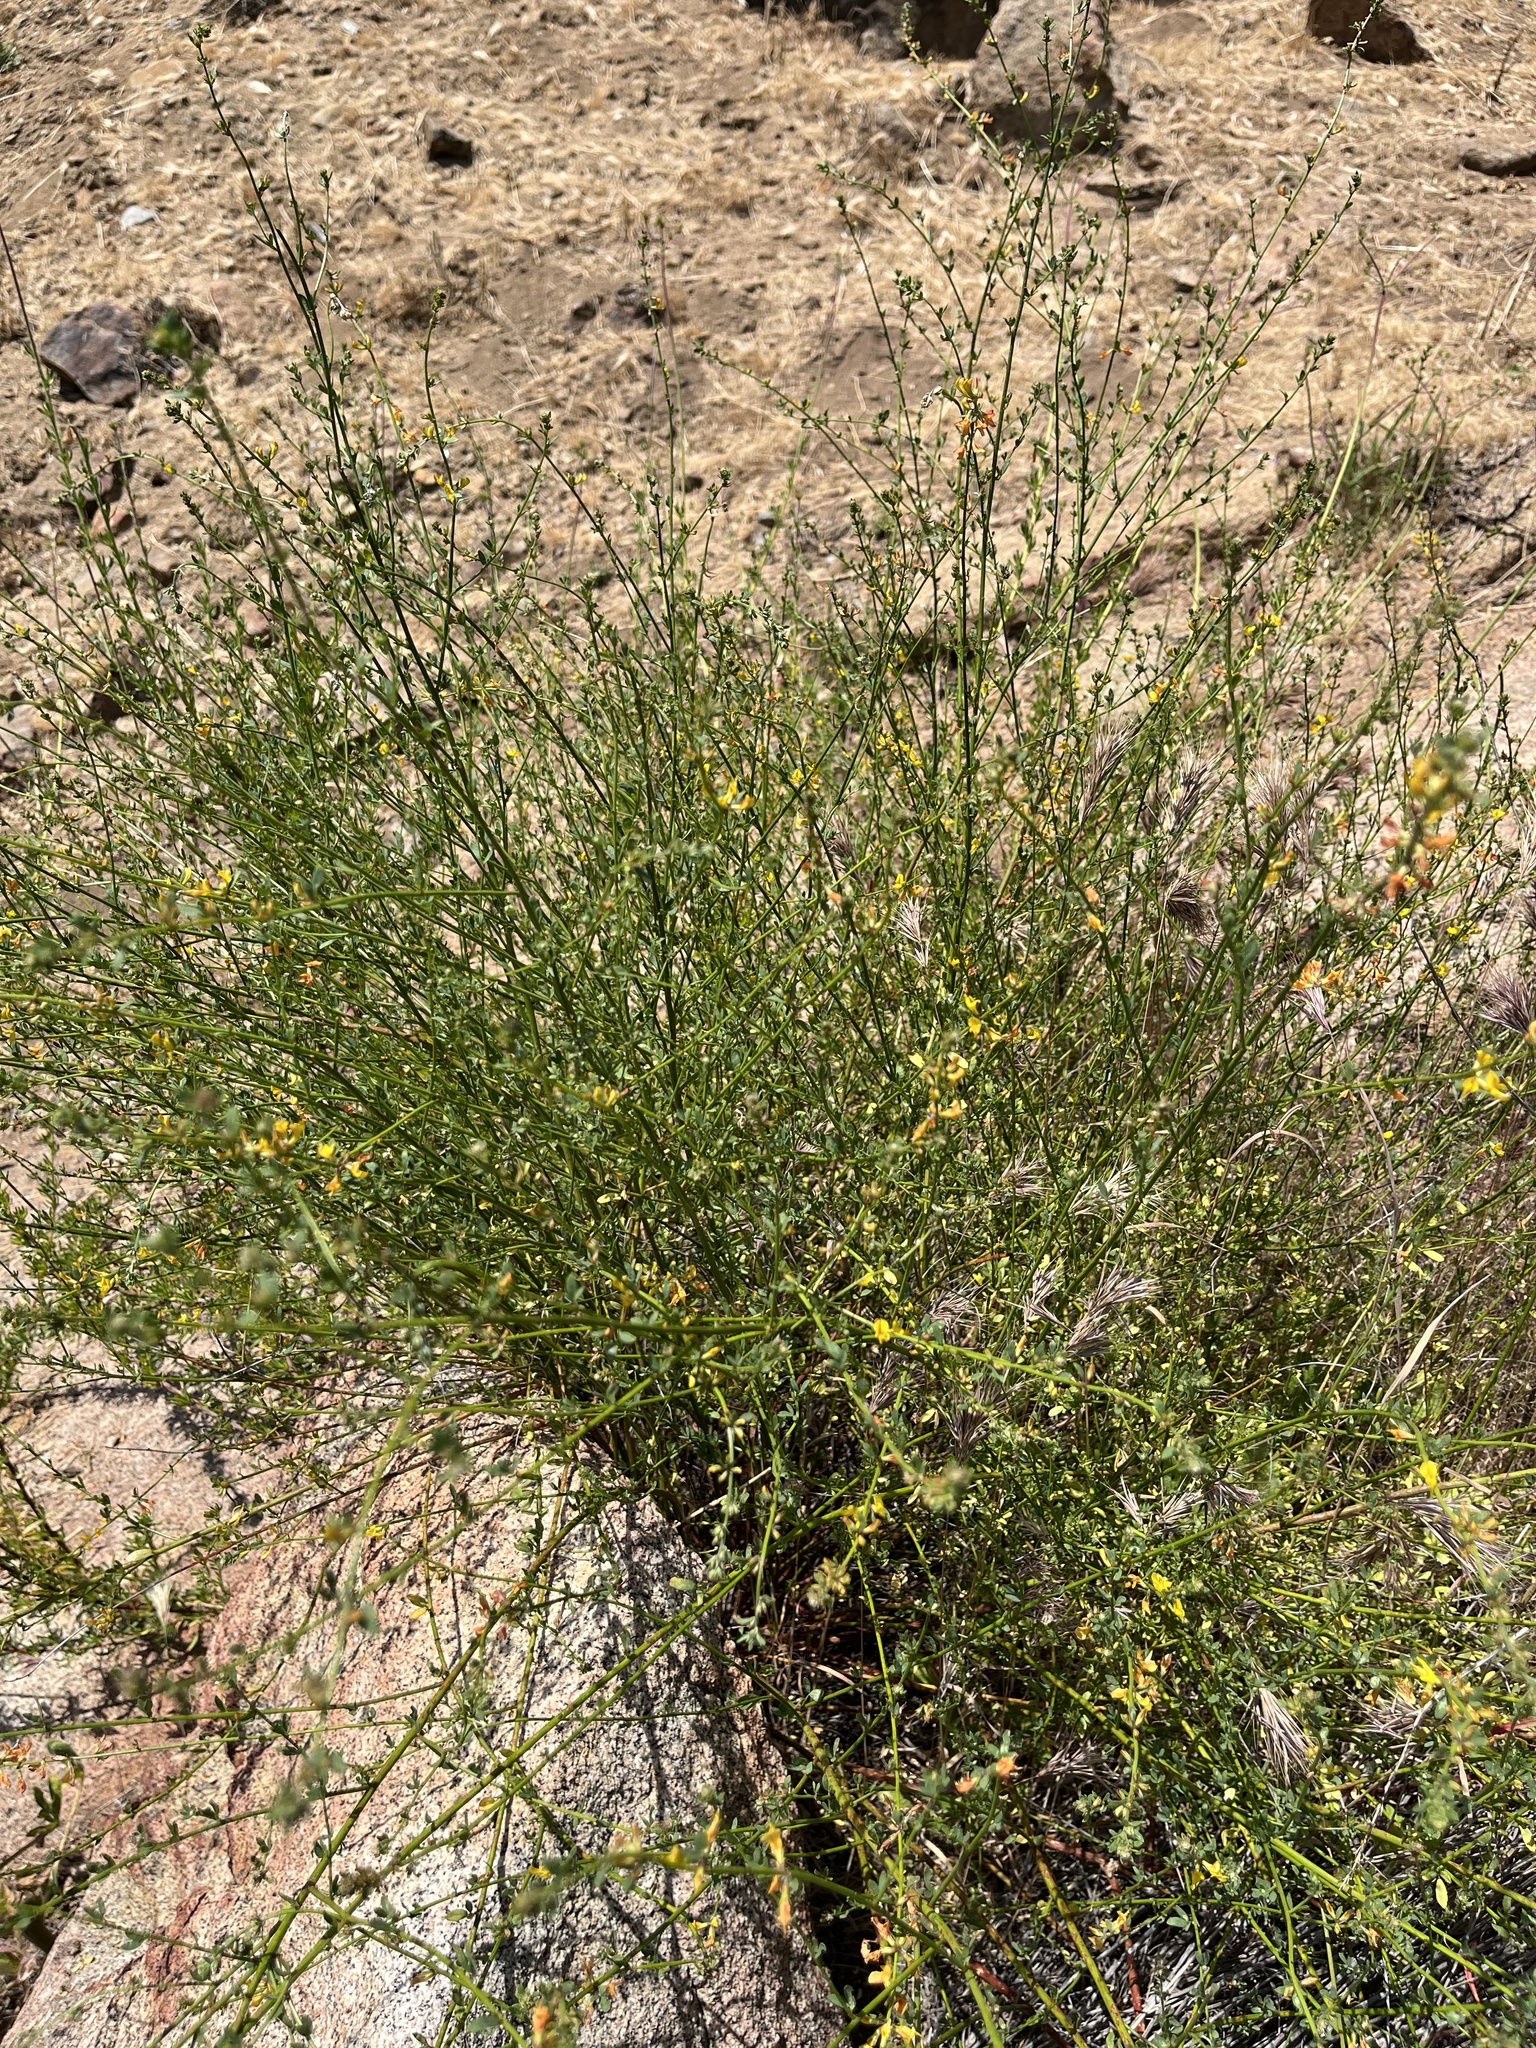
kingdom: Plantae
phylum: Tracheophyta
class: Magnoliopsida
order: Fabales
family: Fabaceae
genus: Acmispon
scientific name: Acmispon glaber
